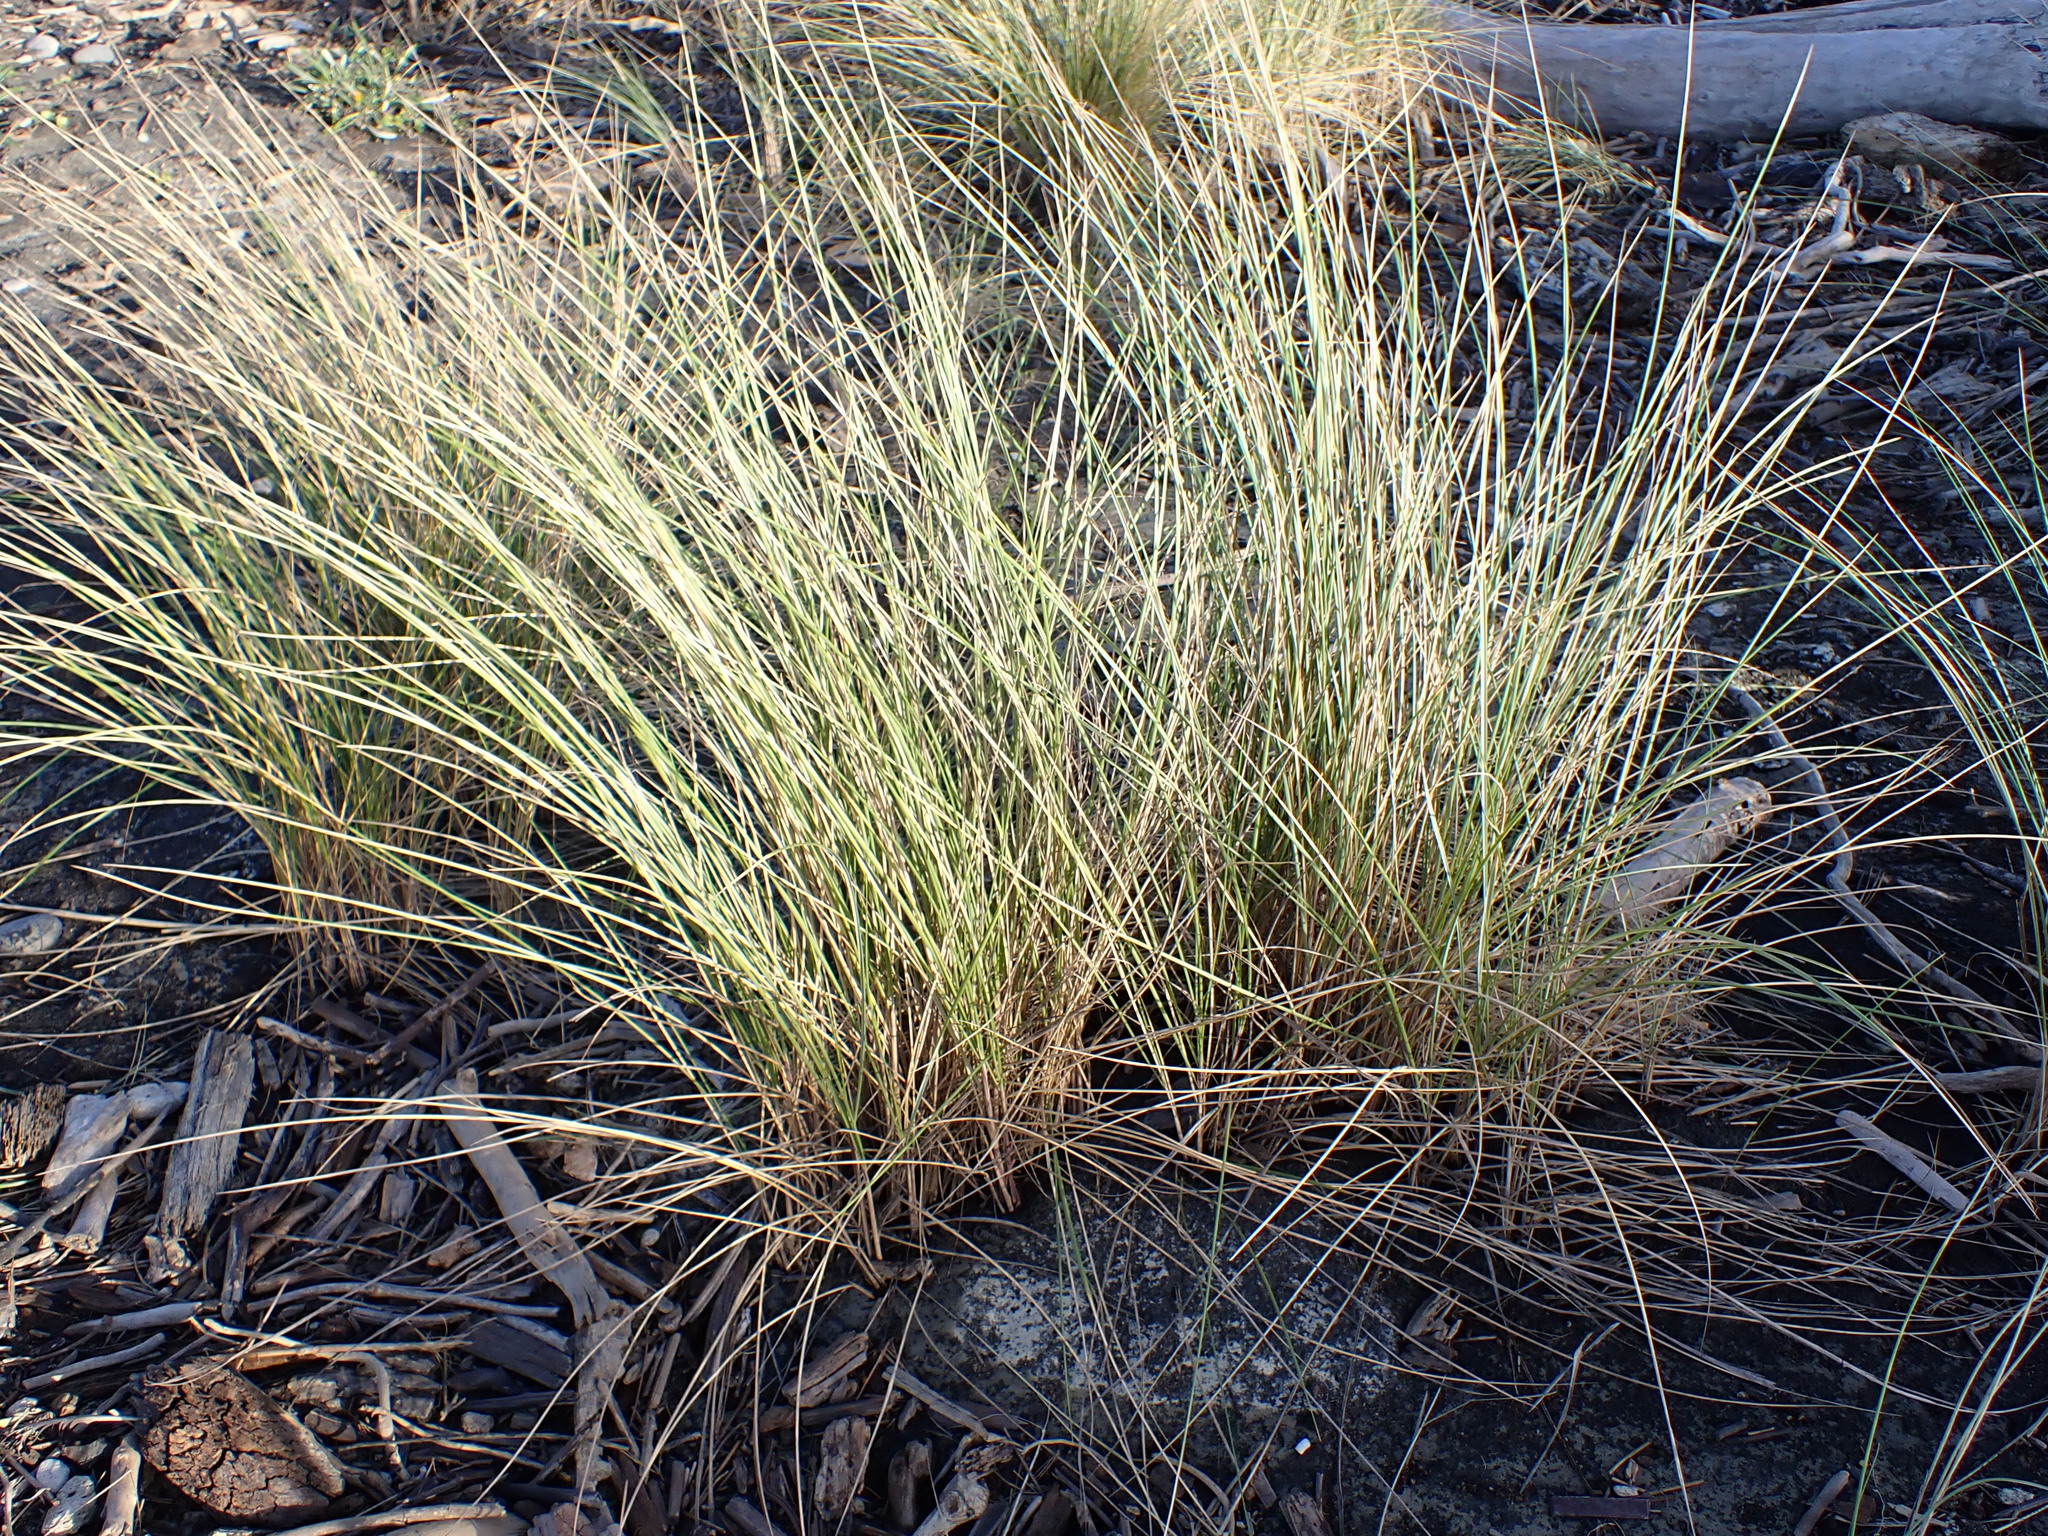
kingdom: Plantae
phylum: Tracheophyta
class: Liliopsida
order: Poales
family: Poaceae
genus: Calamagrostis
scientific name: Calamagrostis arenaria
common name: European beachgrass
